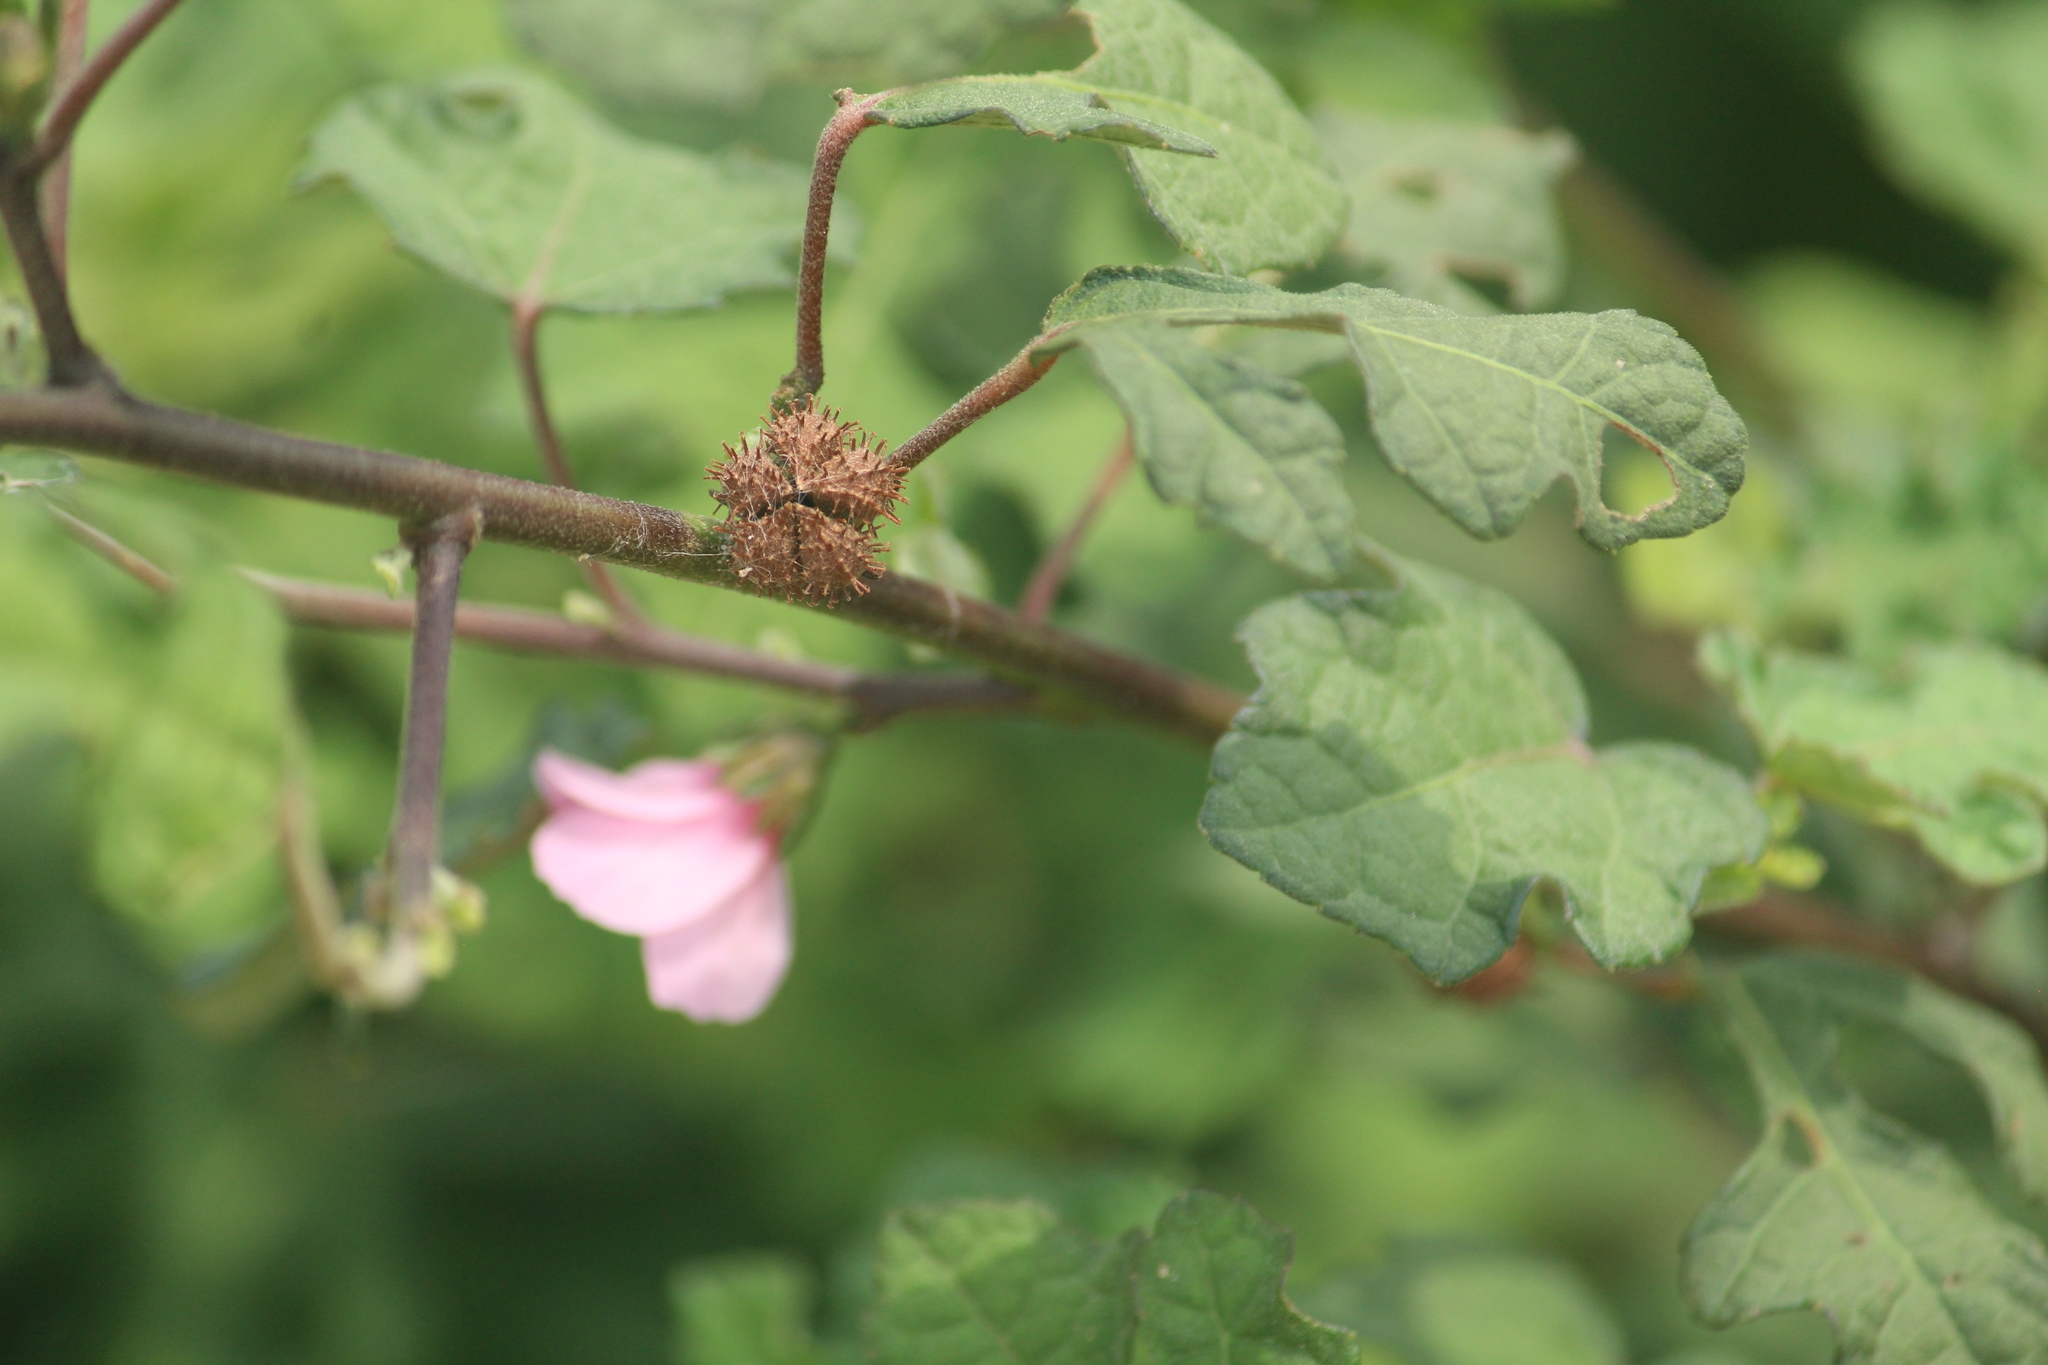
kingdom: Plantae
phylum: Tracheophyta
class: Magnoliopsida
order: Malvales
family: Malvaceae
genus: Urena
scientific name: Urena lobata
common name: Caesarweed
